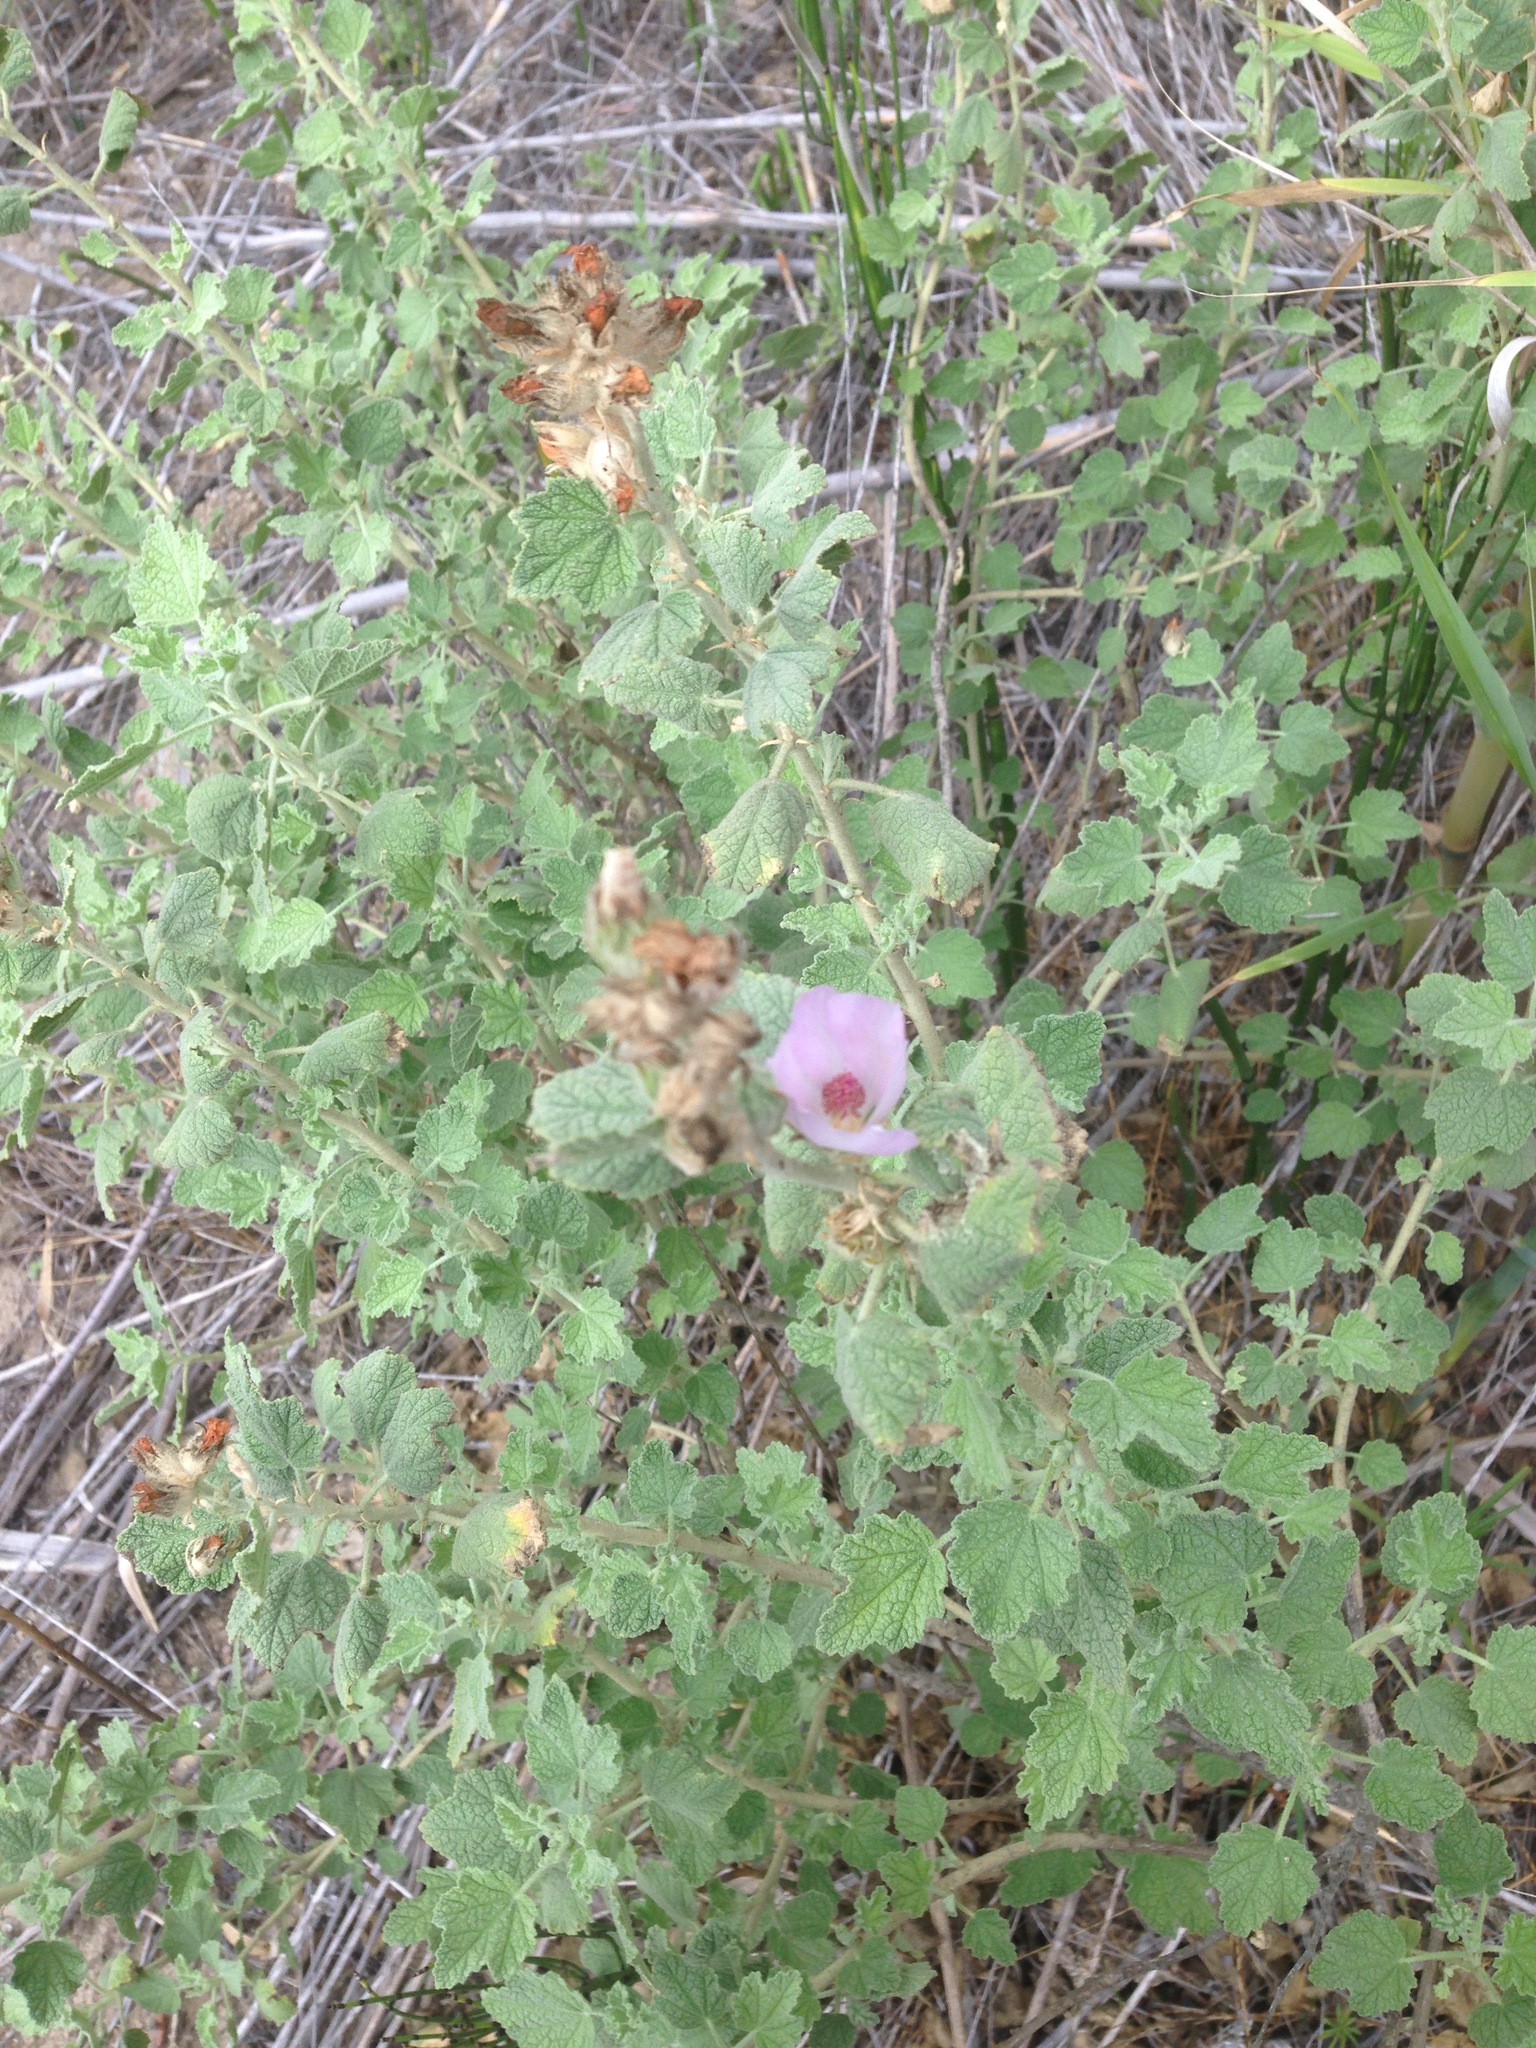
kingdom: Plantae
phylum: Tracheophyta
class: Magnoliopsida
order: Malvales
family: Malvaceae
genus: Malacothamnus
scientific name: Malacothamnus marrubioides
